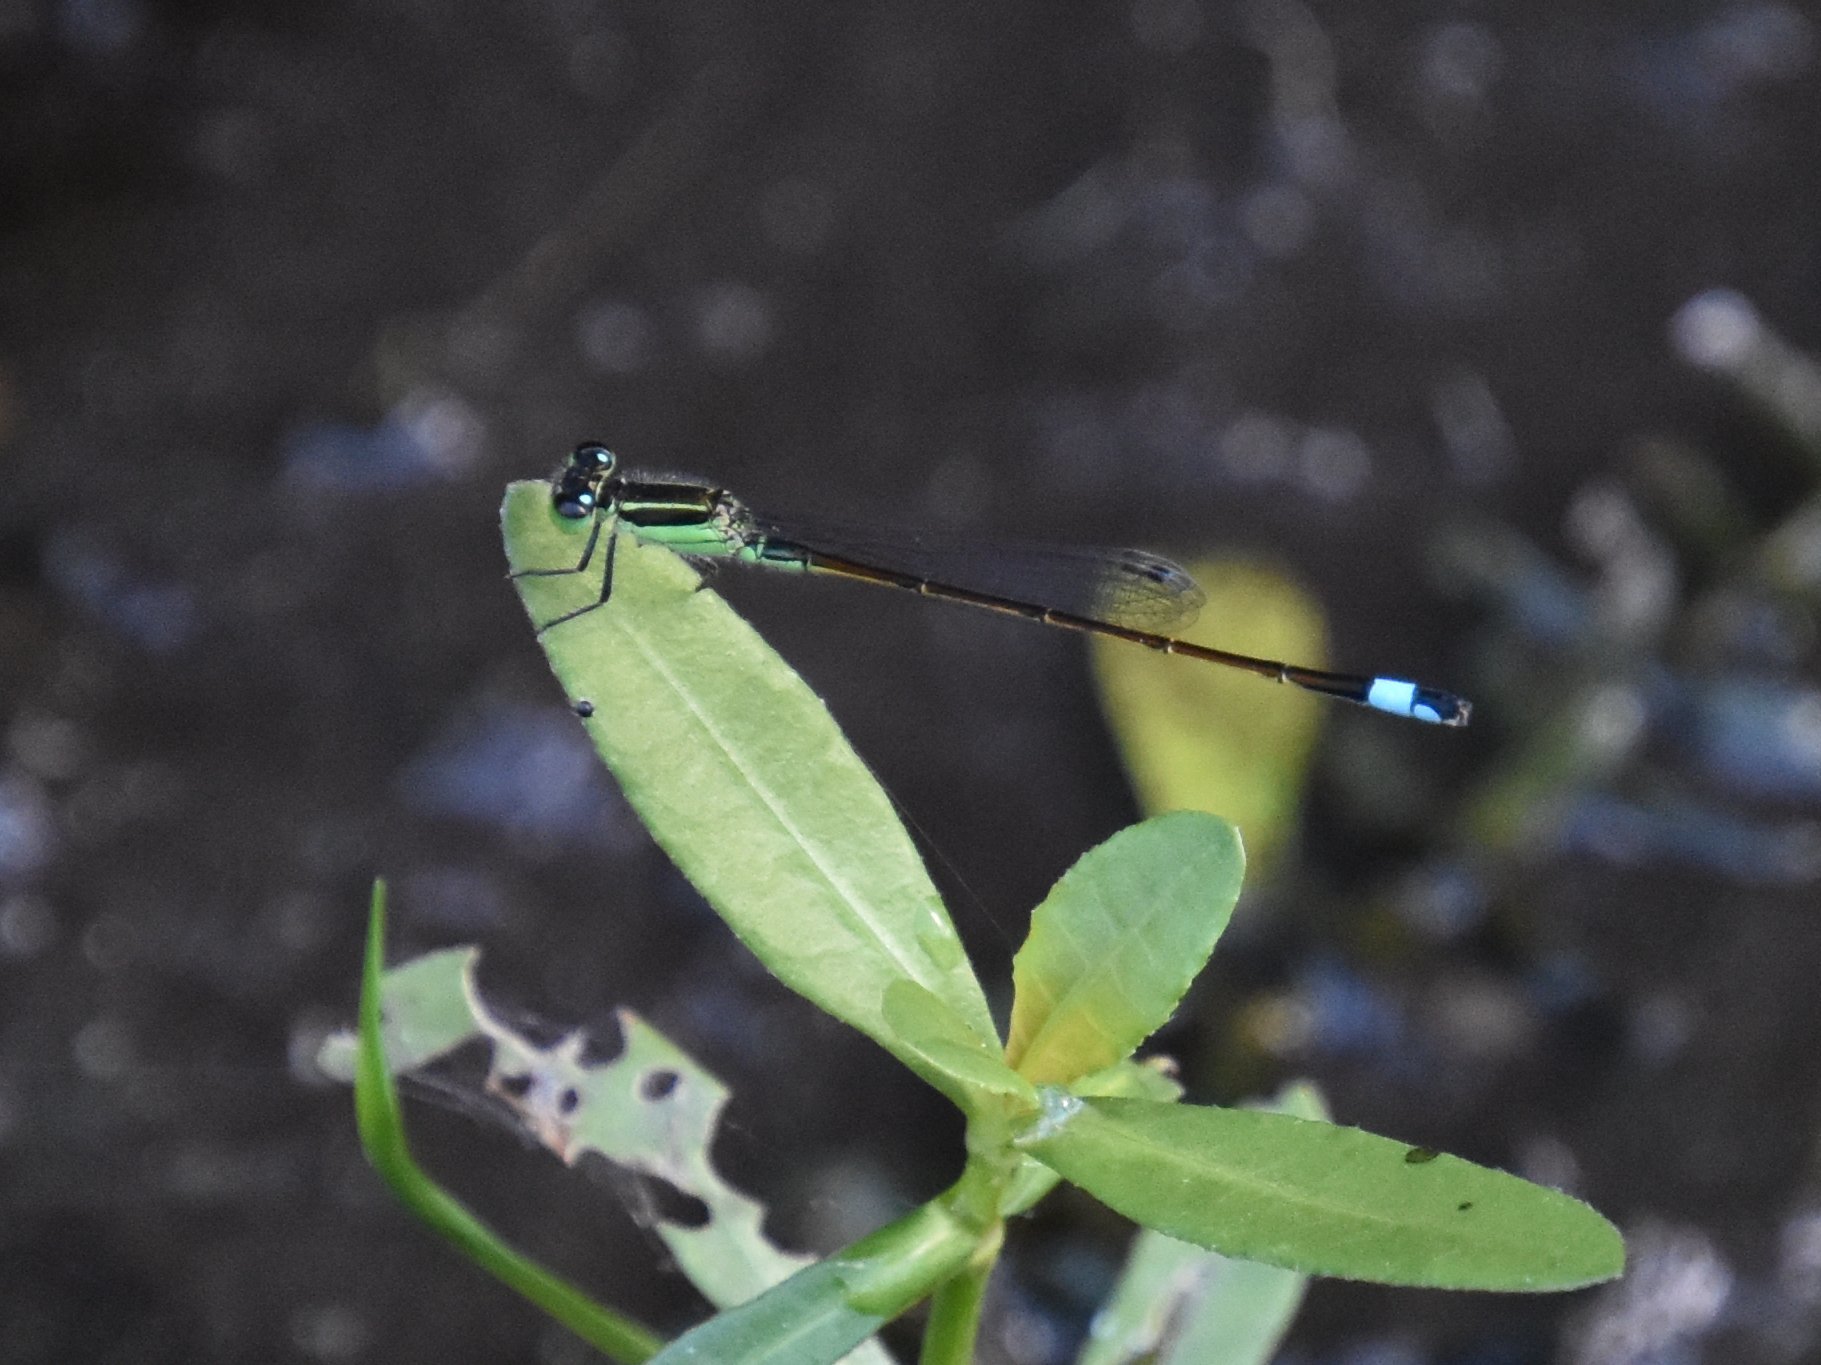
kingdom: Animalia
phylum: Arthropoda
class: Insecta
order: Odonata
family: Coenagrionidae
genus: Ischnura
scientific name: Ischnura ramburii
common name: Rambur's forktail
